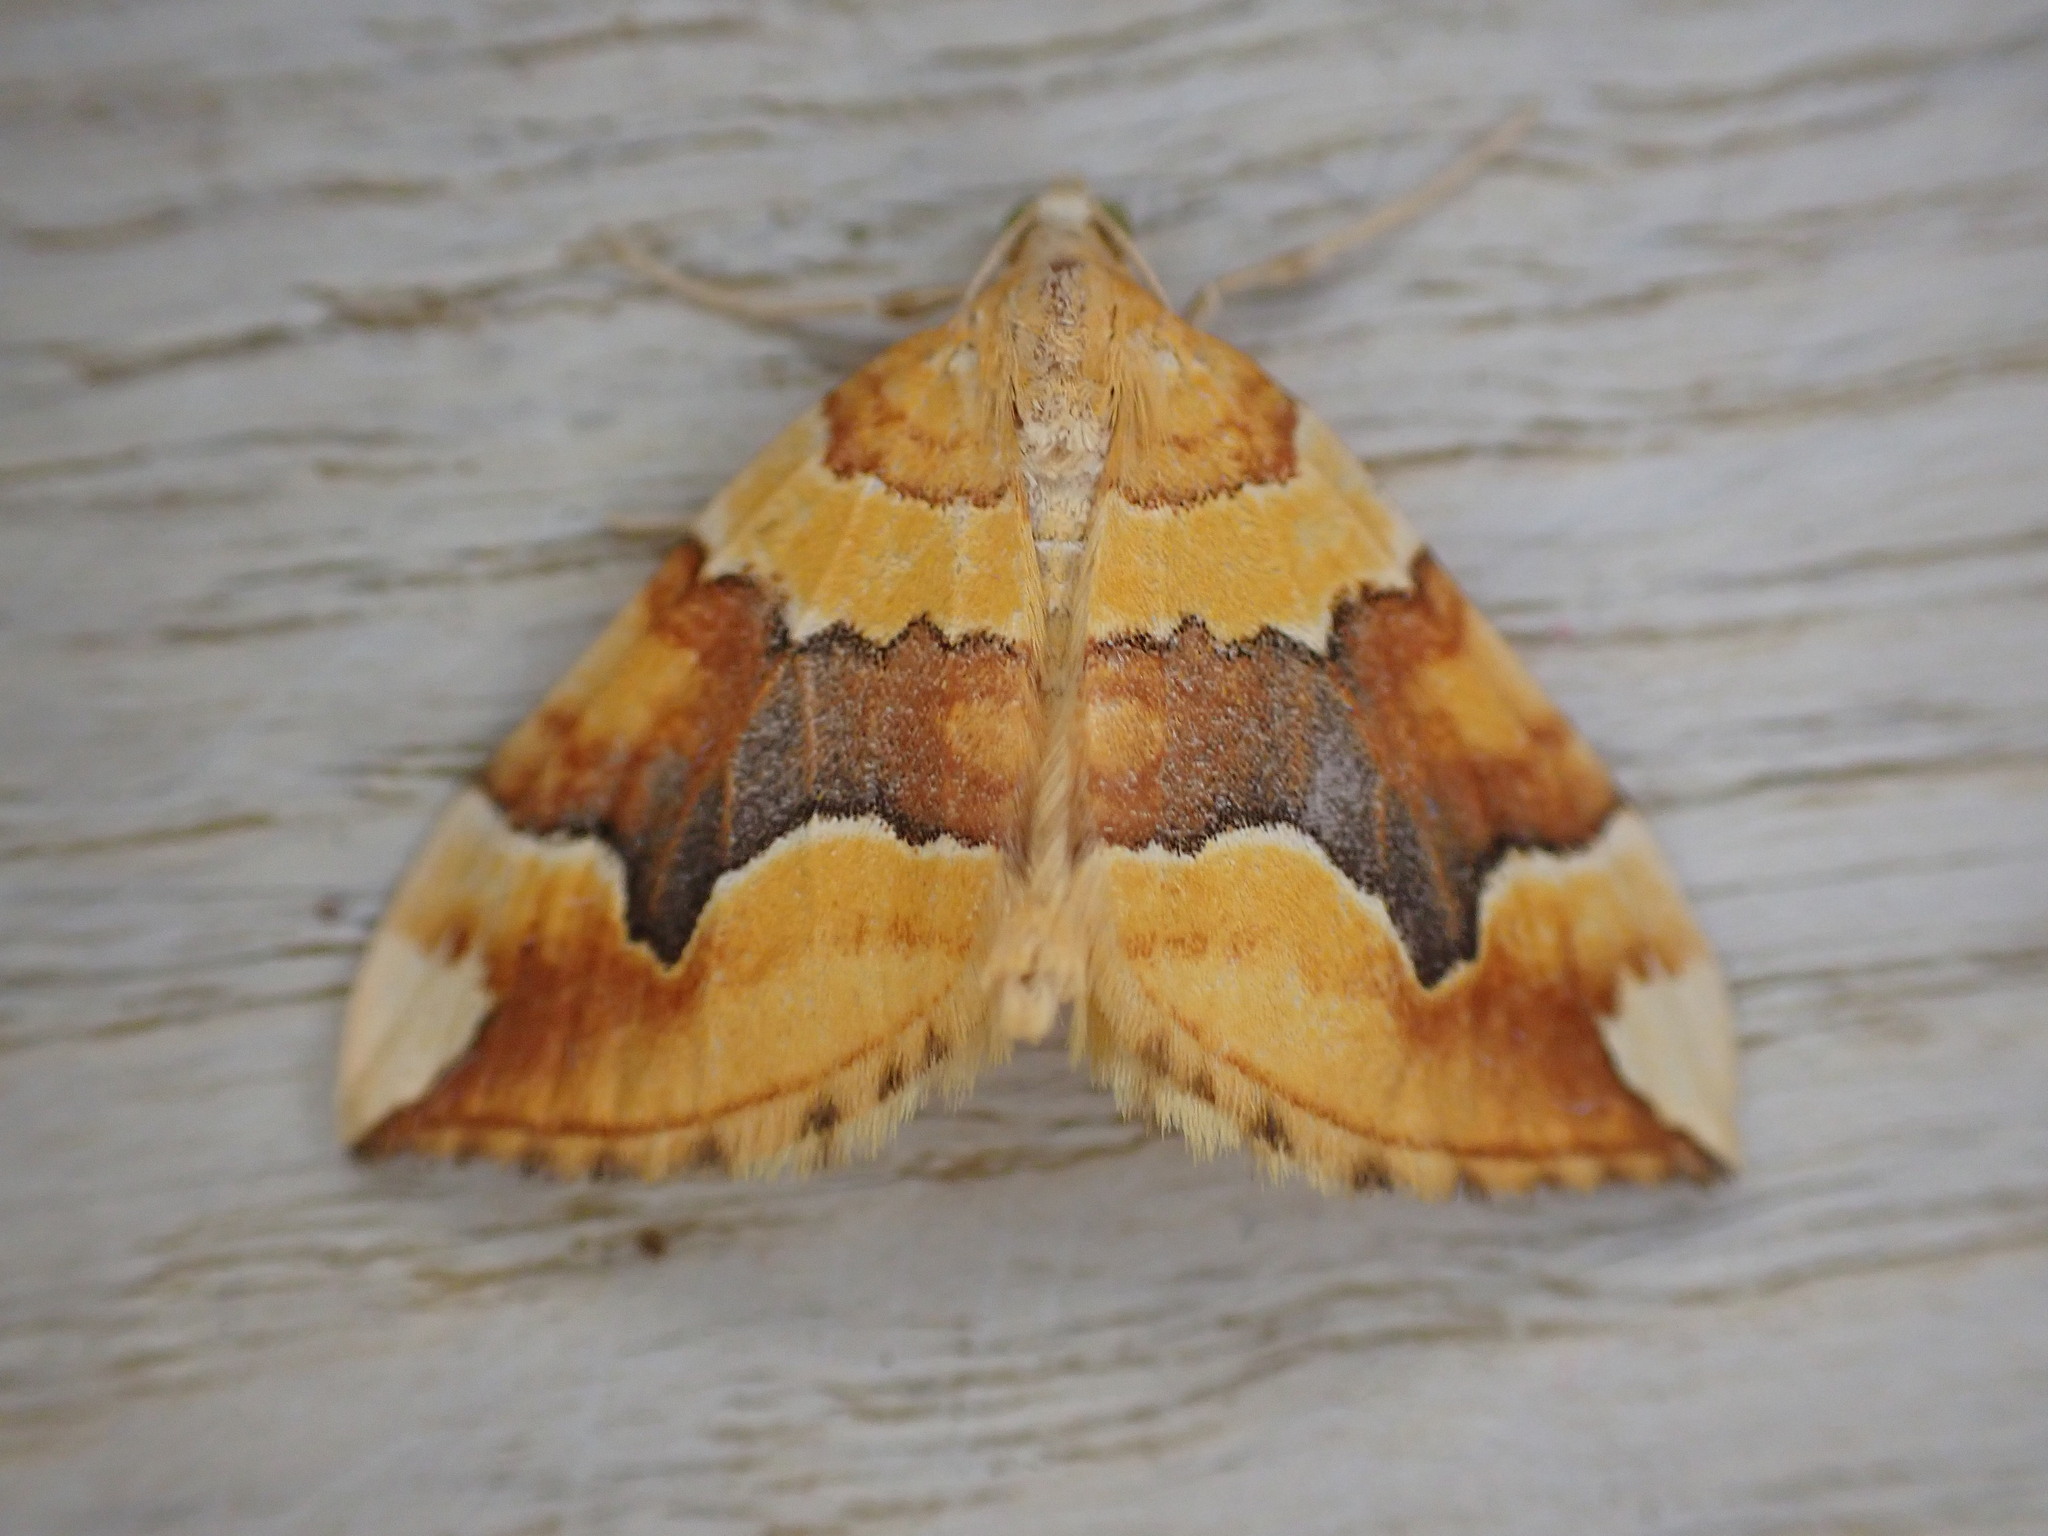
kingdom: Animalia
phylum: Arthropoda
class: Insecta
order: Lepidoptera
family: Geometridae
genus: Cidaria
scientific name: Cidaria fulvata
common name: Barred yellow
